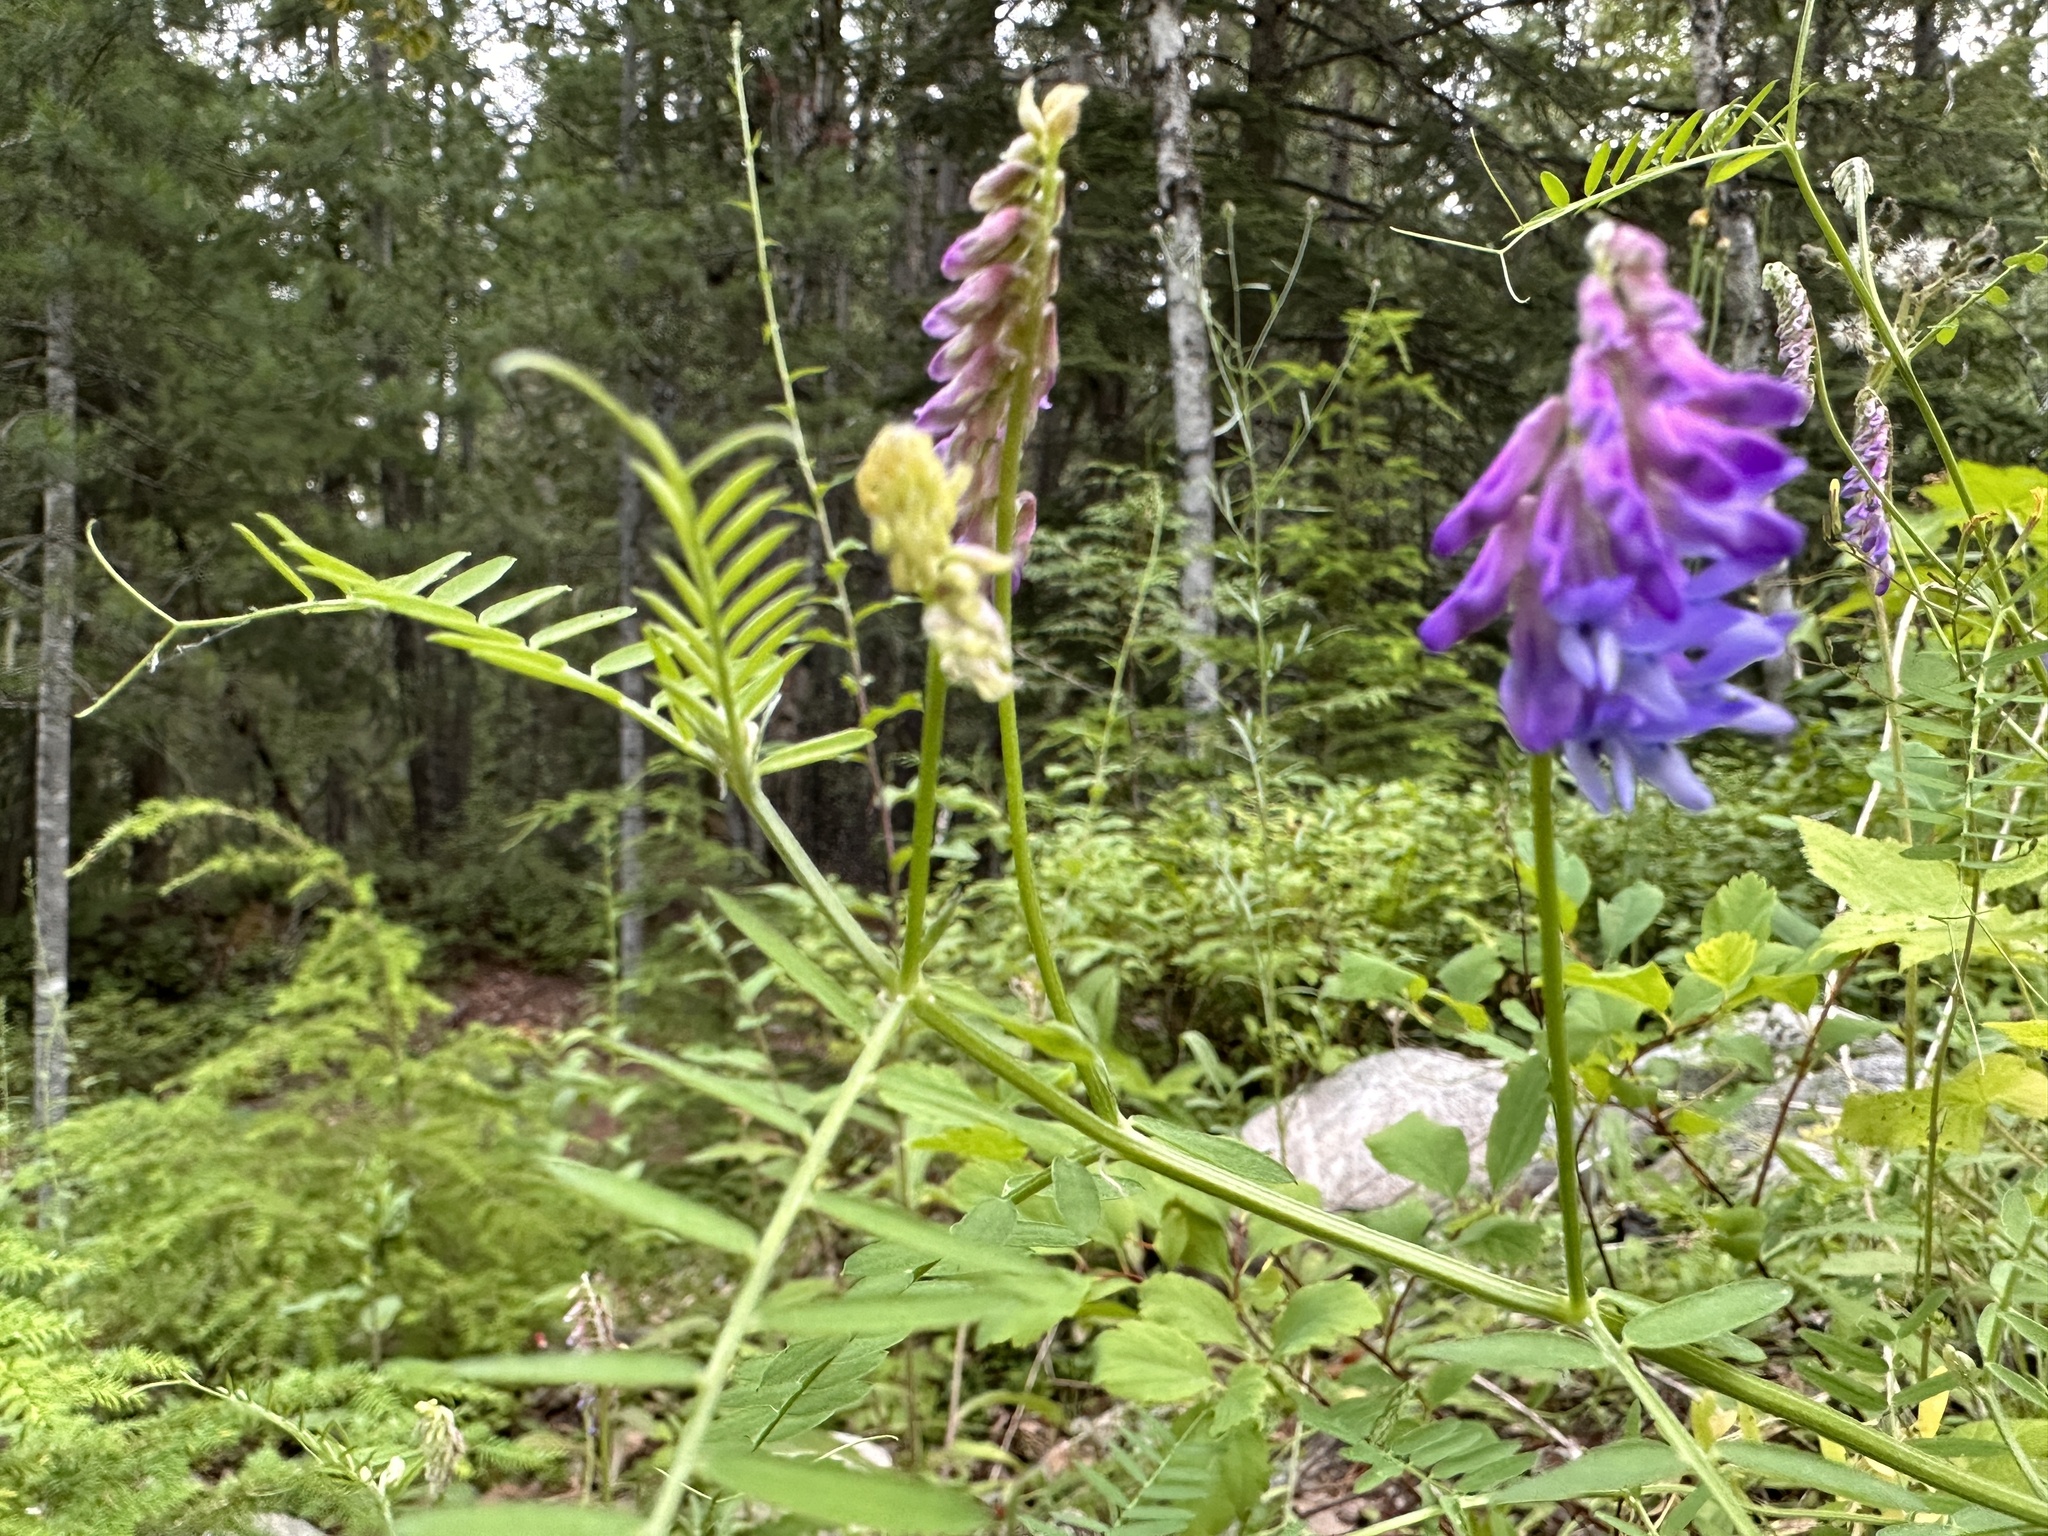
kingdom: Plantae
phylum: Tracheophyta
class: Magnoliopsida
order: Fabales
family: Fabaceae
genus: Vicia
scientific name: Vicia cracca
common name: Bird vetch
